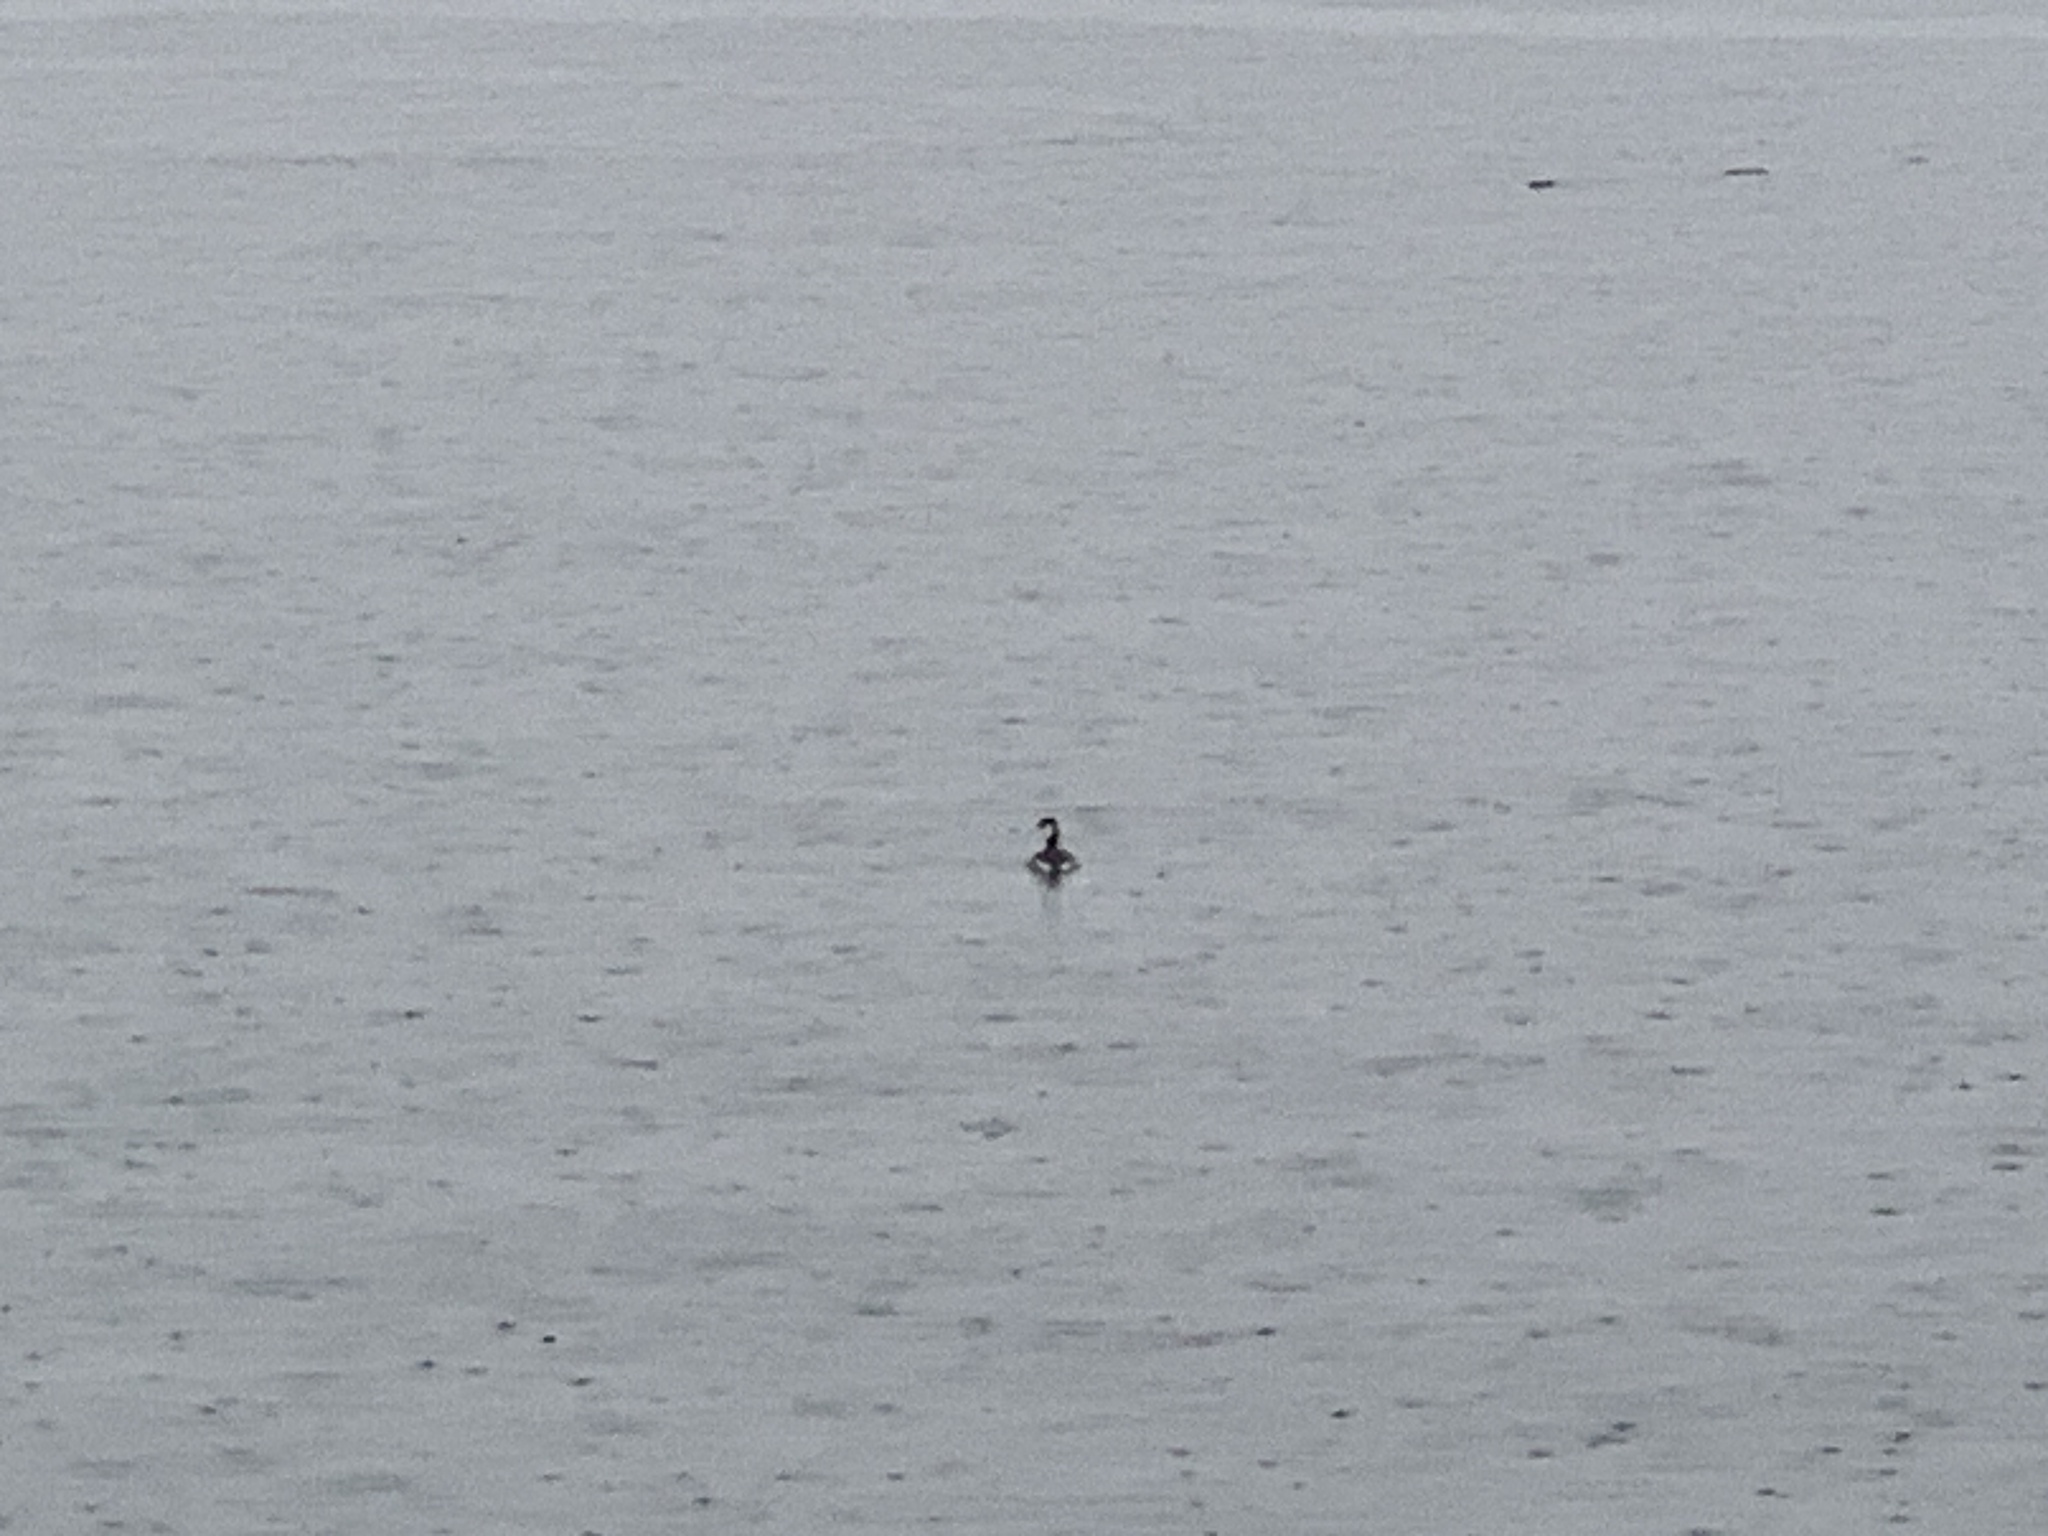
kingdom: Animalia
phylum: Chordata
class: Aves
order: Podicipediformes
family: Podicipedidae
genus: Podiceps
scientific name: Podiceps auritus
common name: Horned grebe
